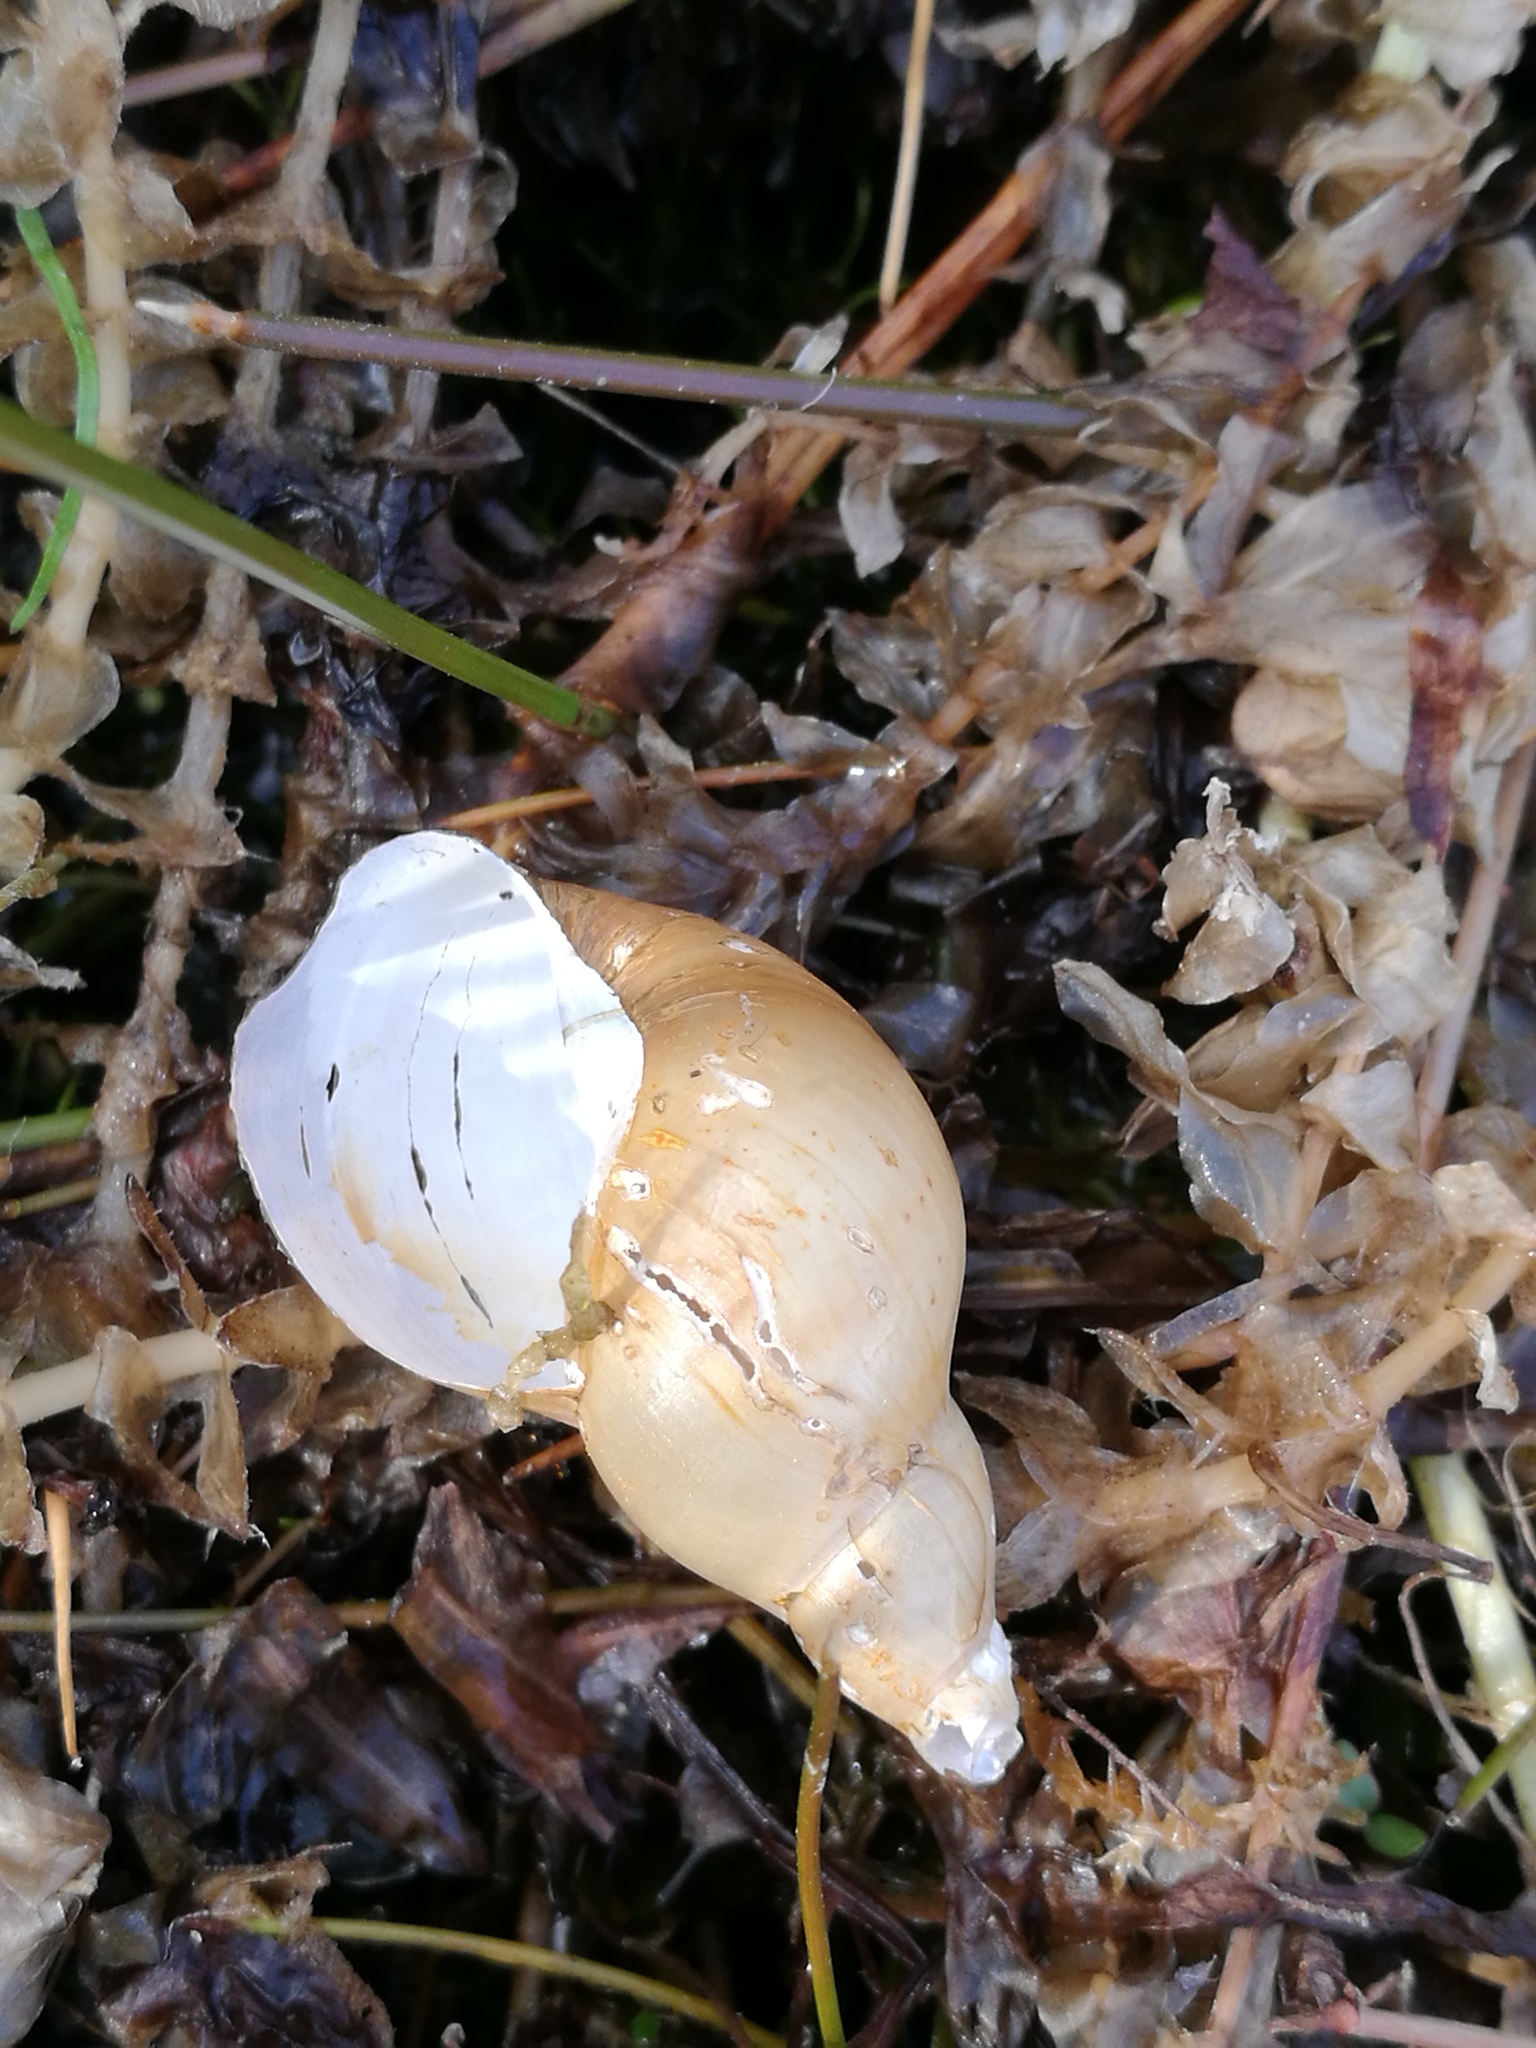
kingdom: Animalia
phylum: Mollusca
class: Gastropoda
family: Lymnaeidae
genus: Lymnaea
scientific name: Lymnaea stagnalis
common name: Great pond snail
